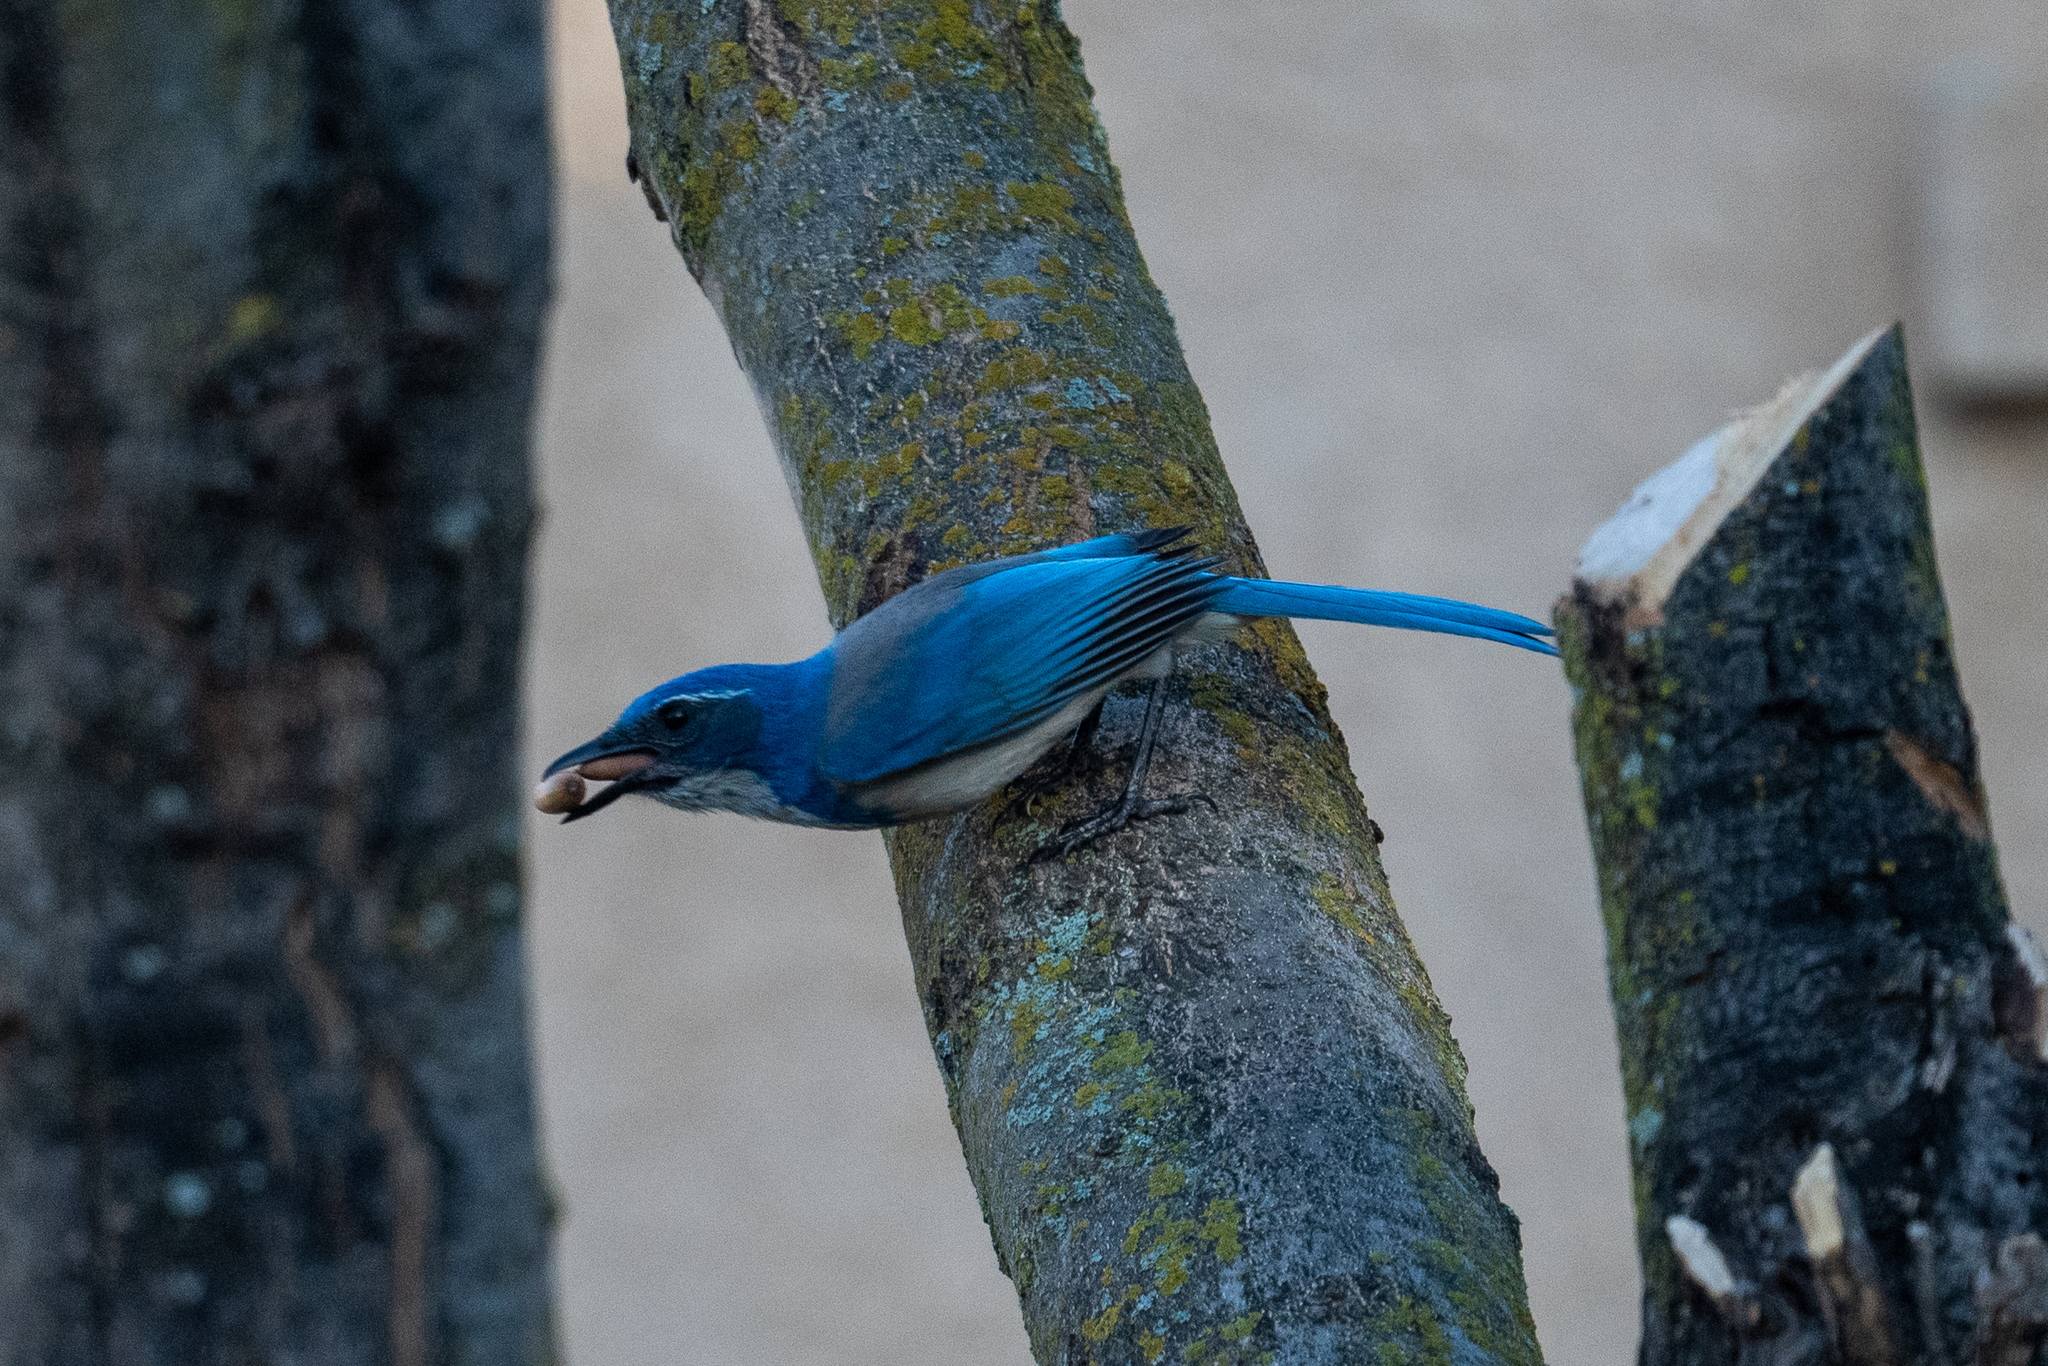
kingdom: Animalia
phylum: Chordata
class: Aves
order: Passeriformes
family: Corvidae
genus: Aphelocoma
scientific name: Aphelocoma californica
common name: California scrub-jay
